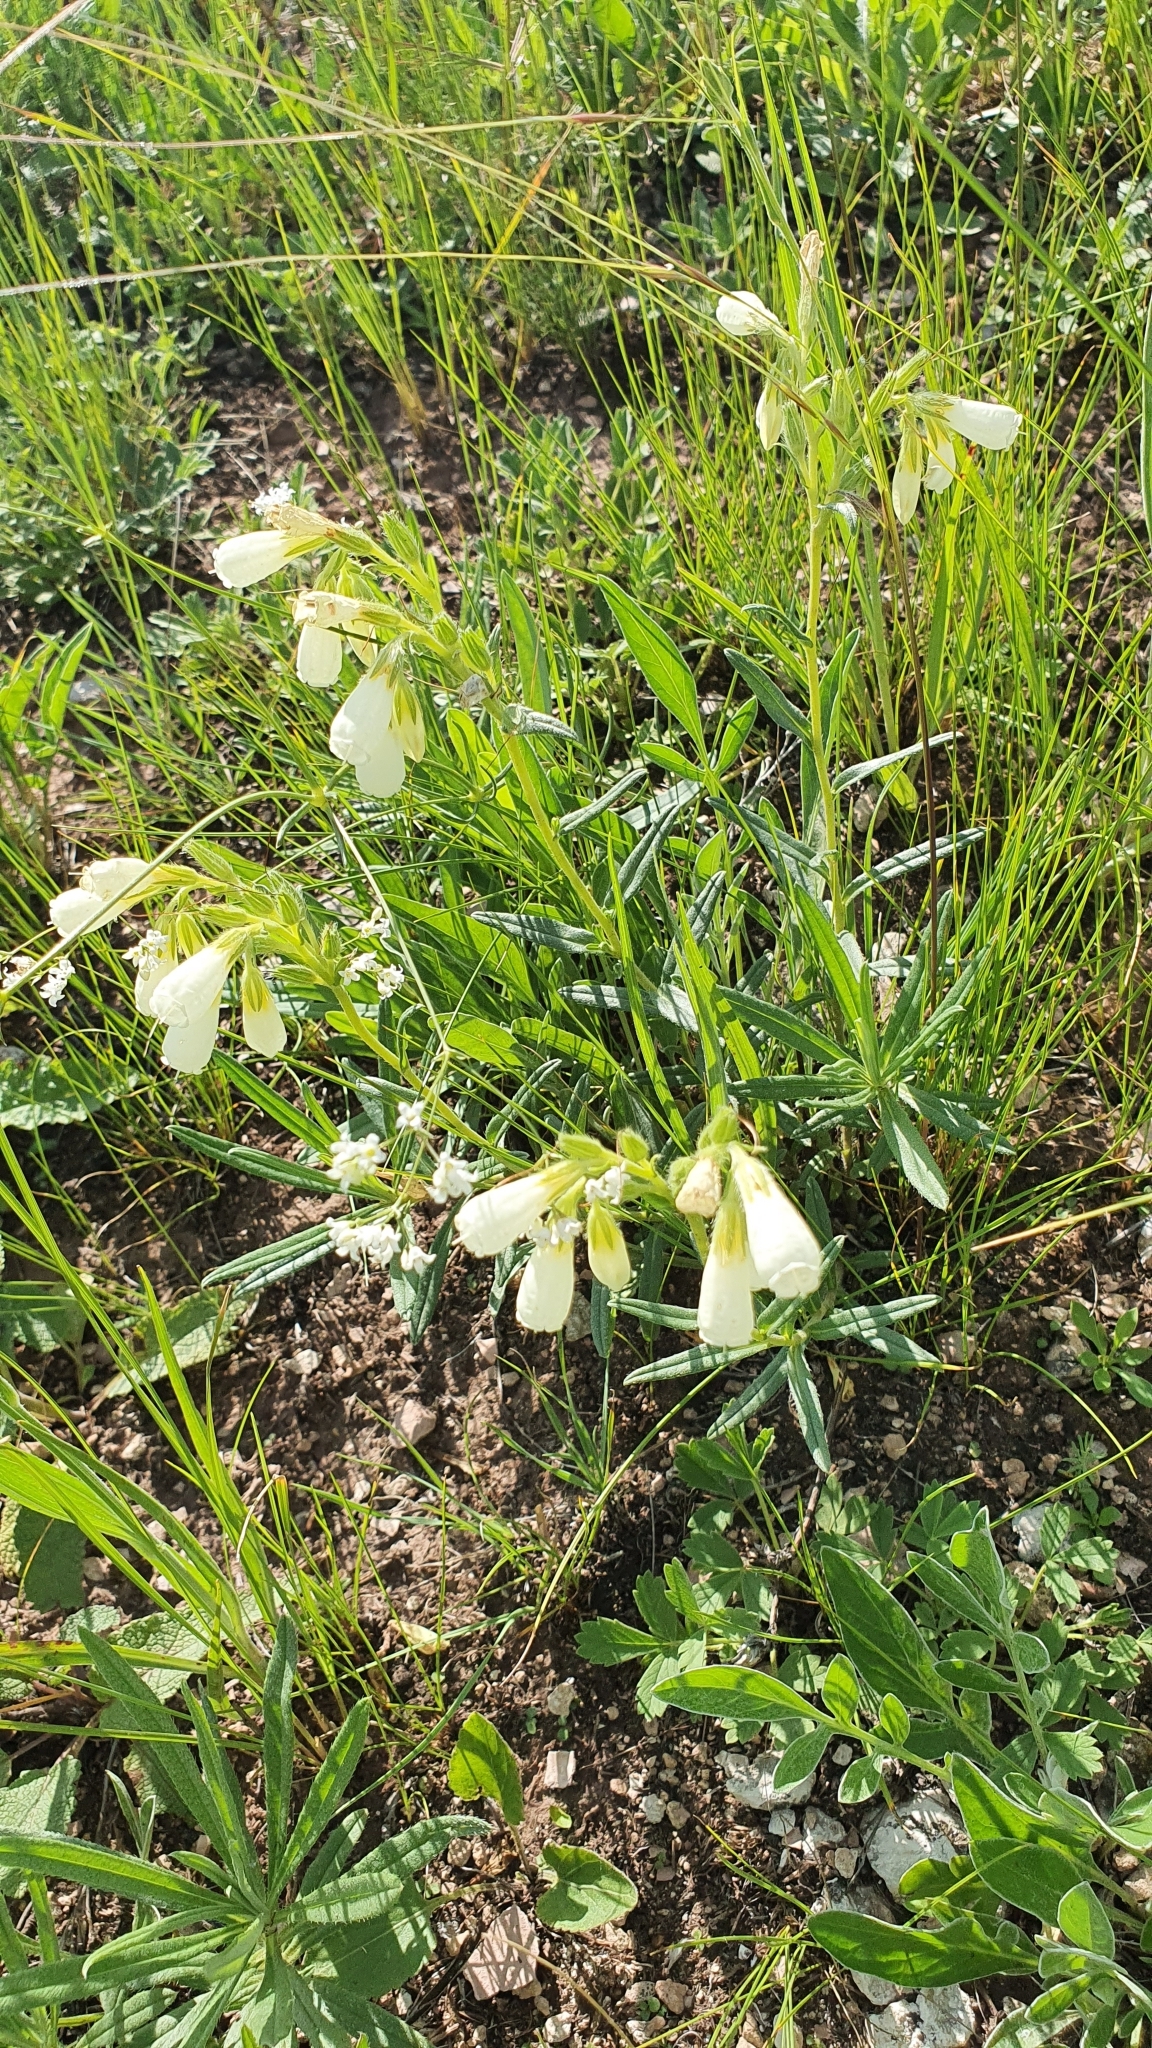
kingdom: Plantae
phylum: Tracheophyta
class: Magnoliopsida
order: Boraginales
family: Boraginaceae
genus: Onosma
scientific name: Onosma simplicissima
